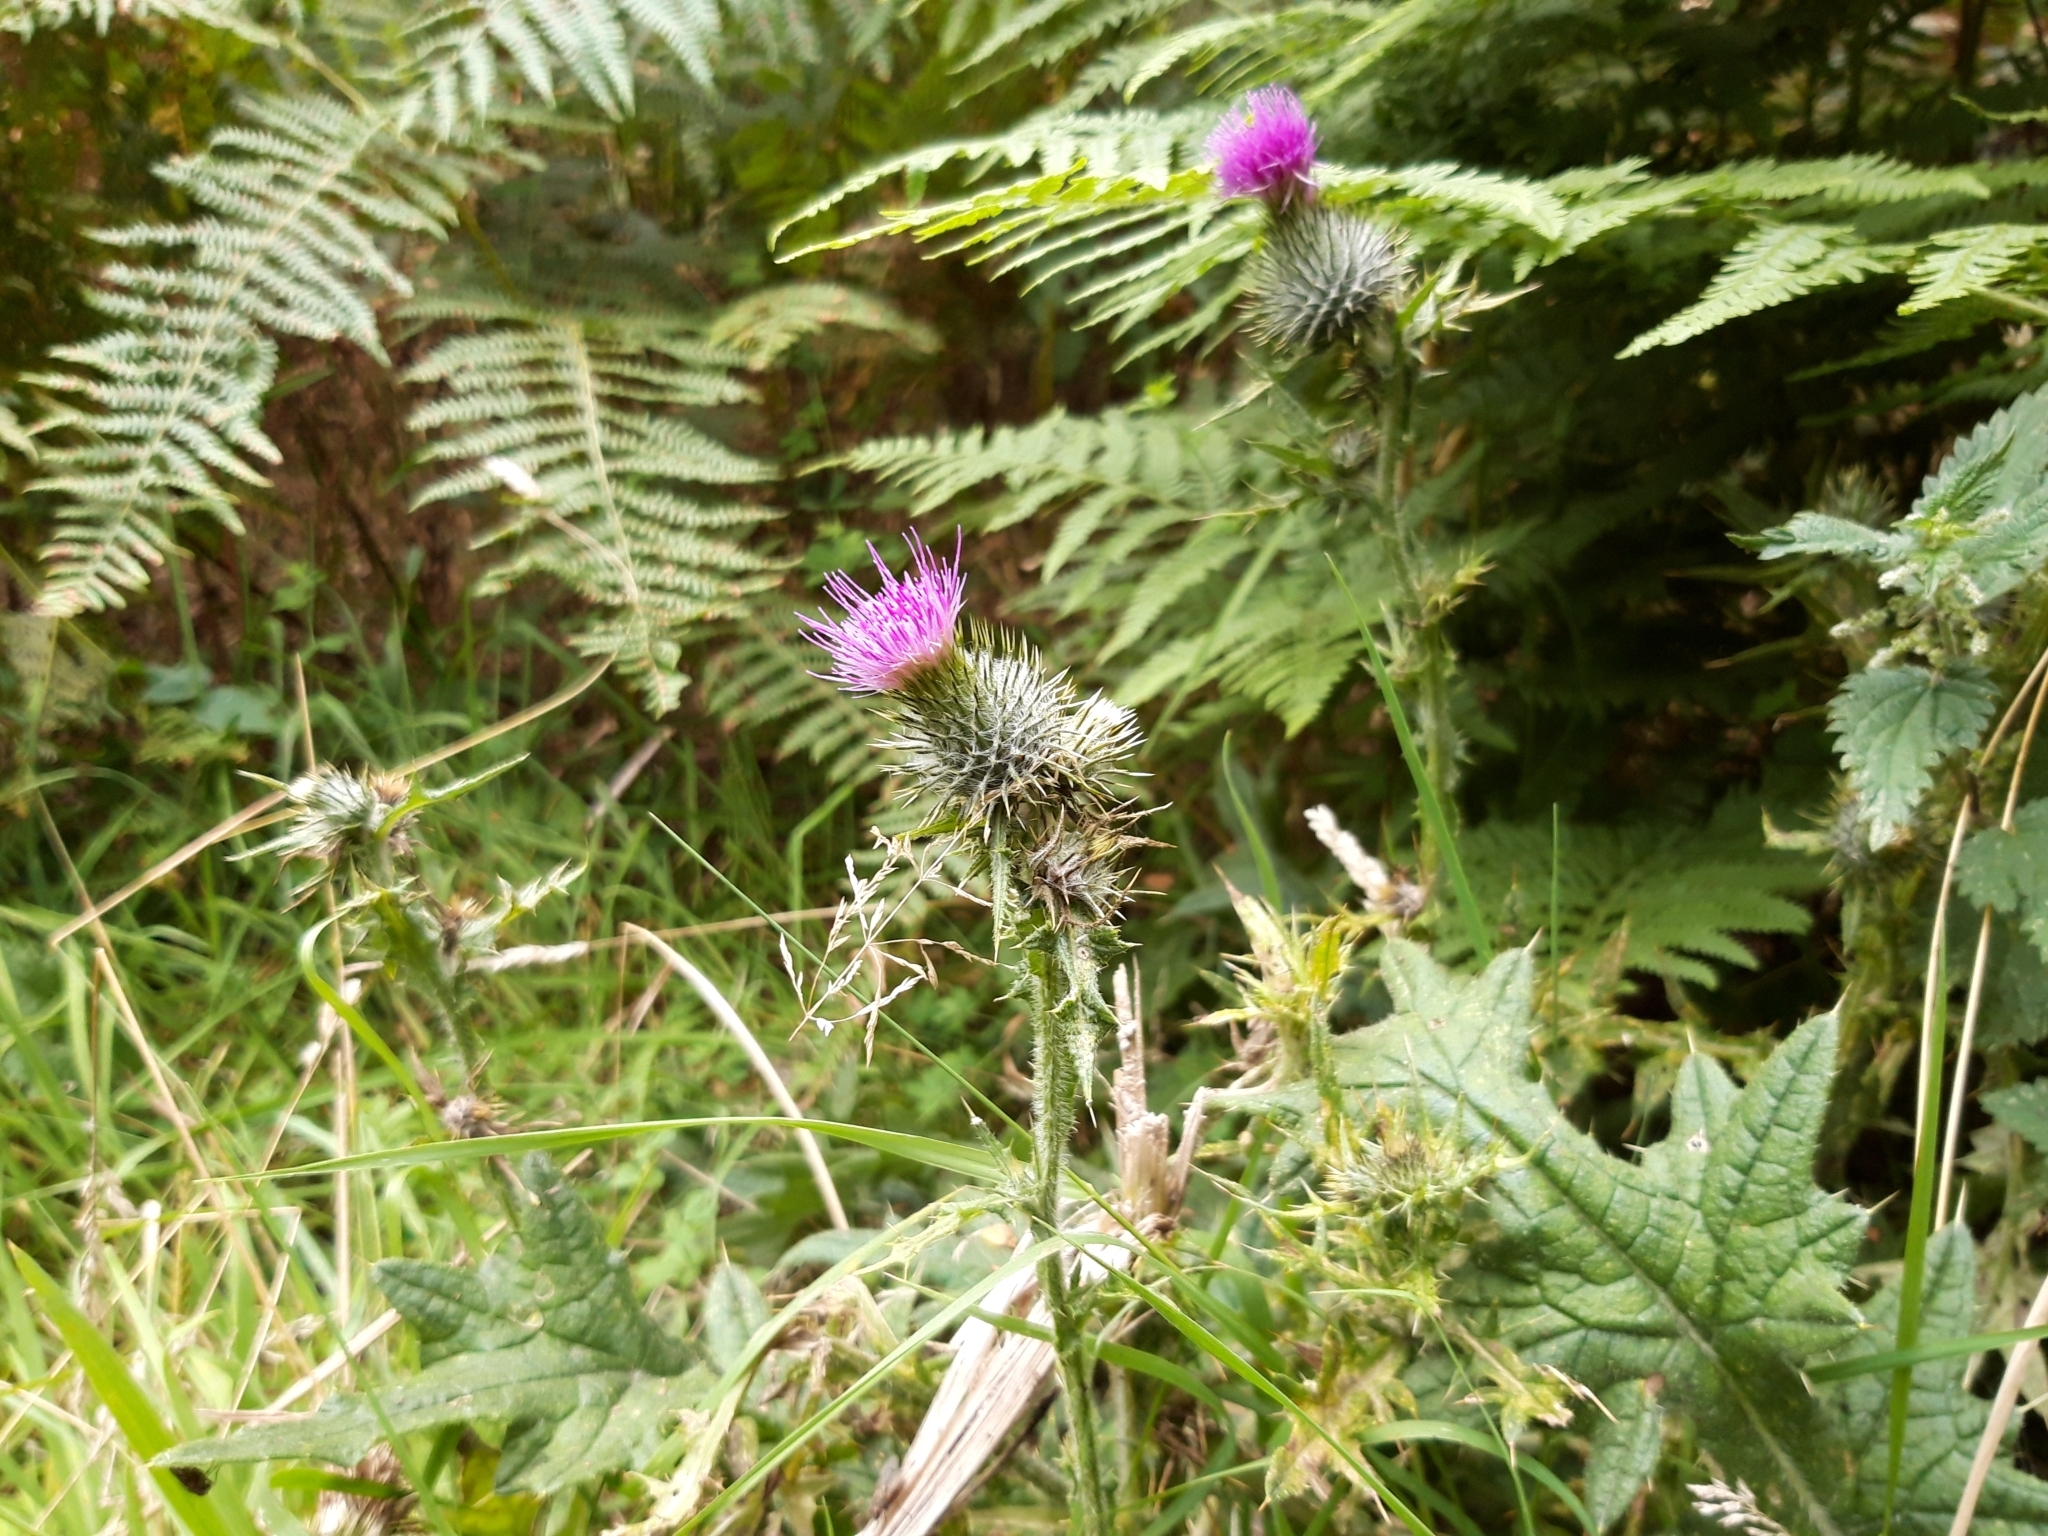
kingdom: Plantae
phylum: Tracheophyta
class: Magnoliopsida
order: Asterales
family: Asteraceae
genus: Cirsium
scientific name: Cirsium vulgare
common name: Bull thistle
